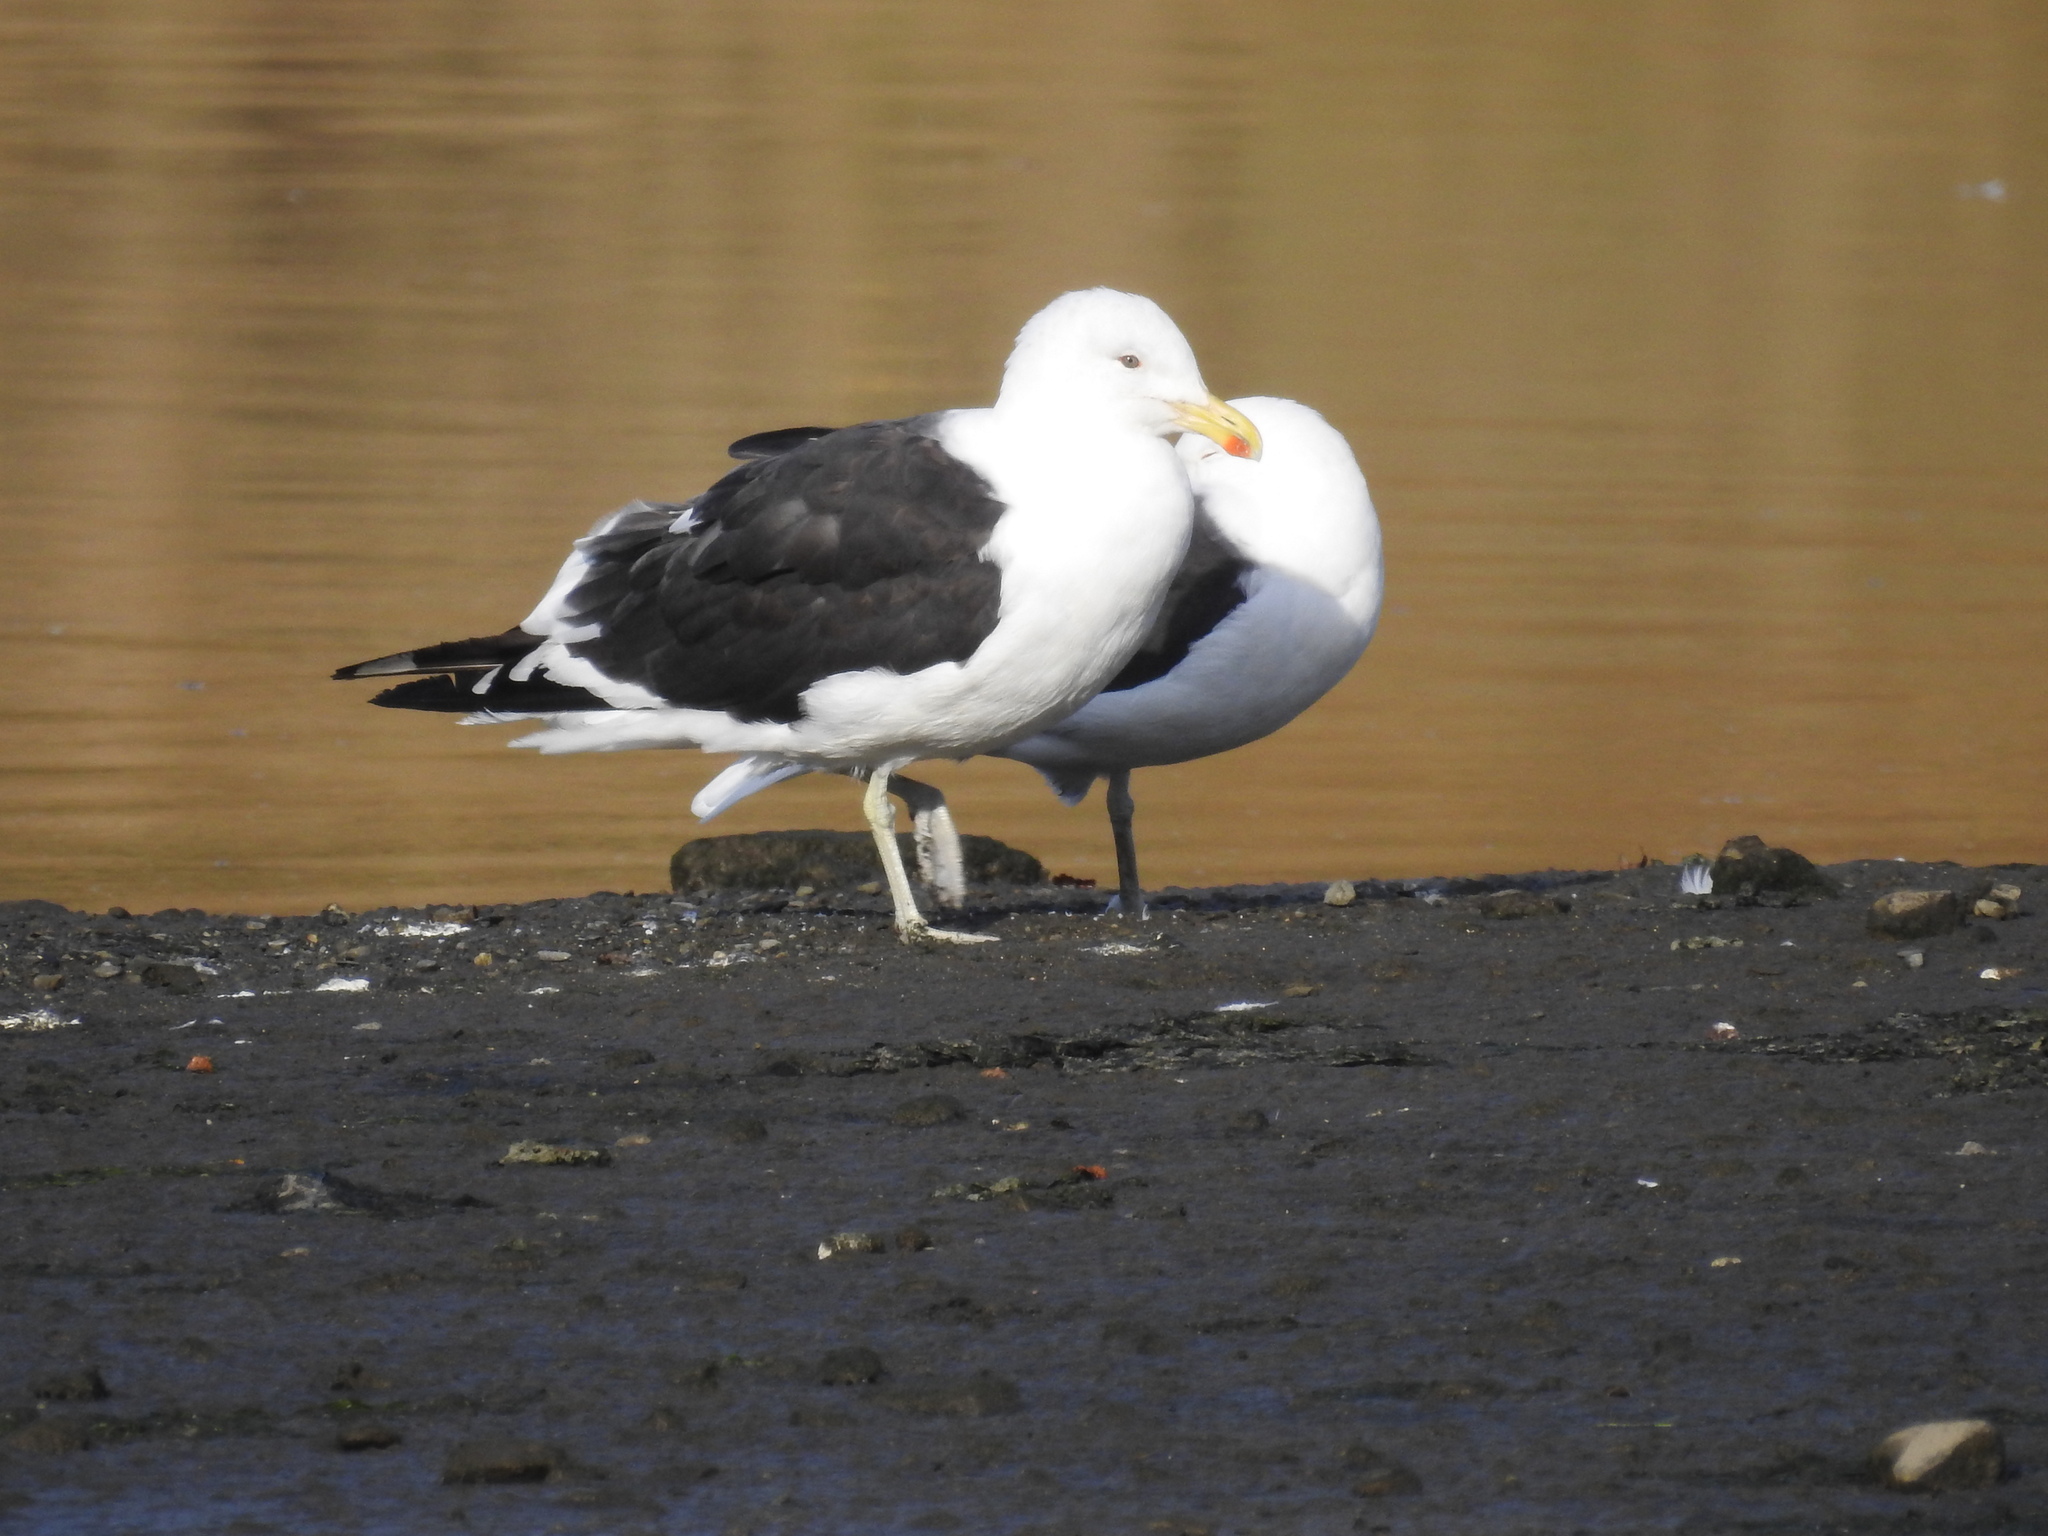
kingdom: Animalia
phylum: Chordata
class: Aves
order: Charadriiformes
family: Laridae
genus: Larus
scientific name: Larus dominicanus
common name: Kelp gull
